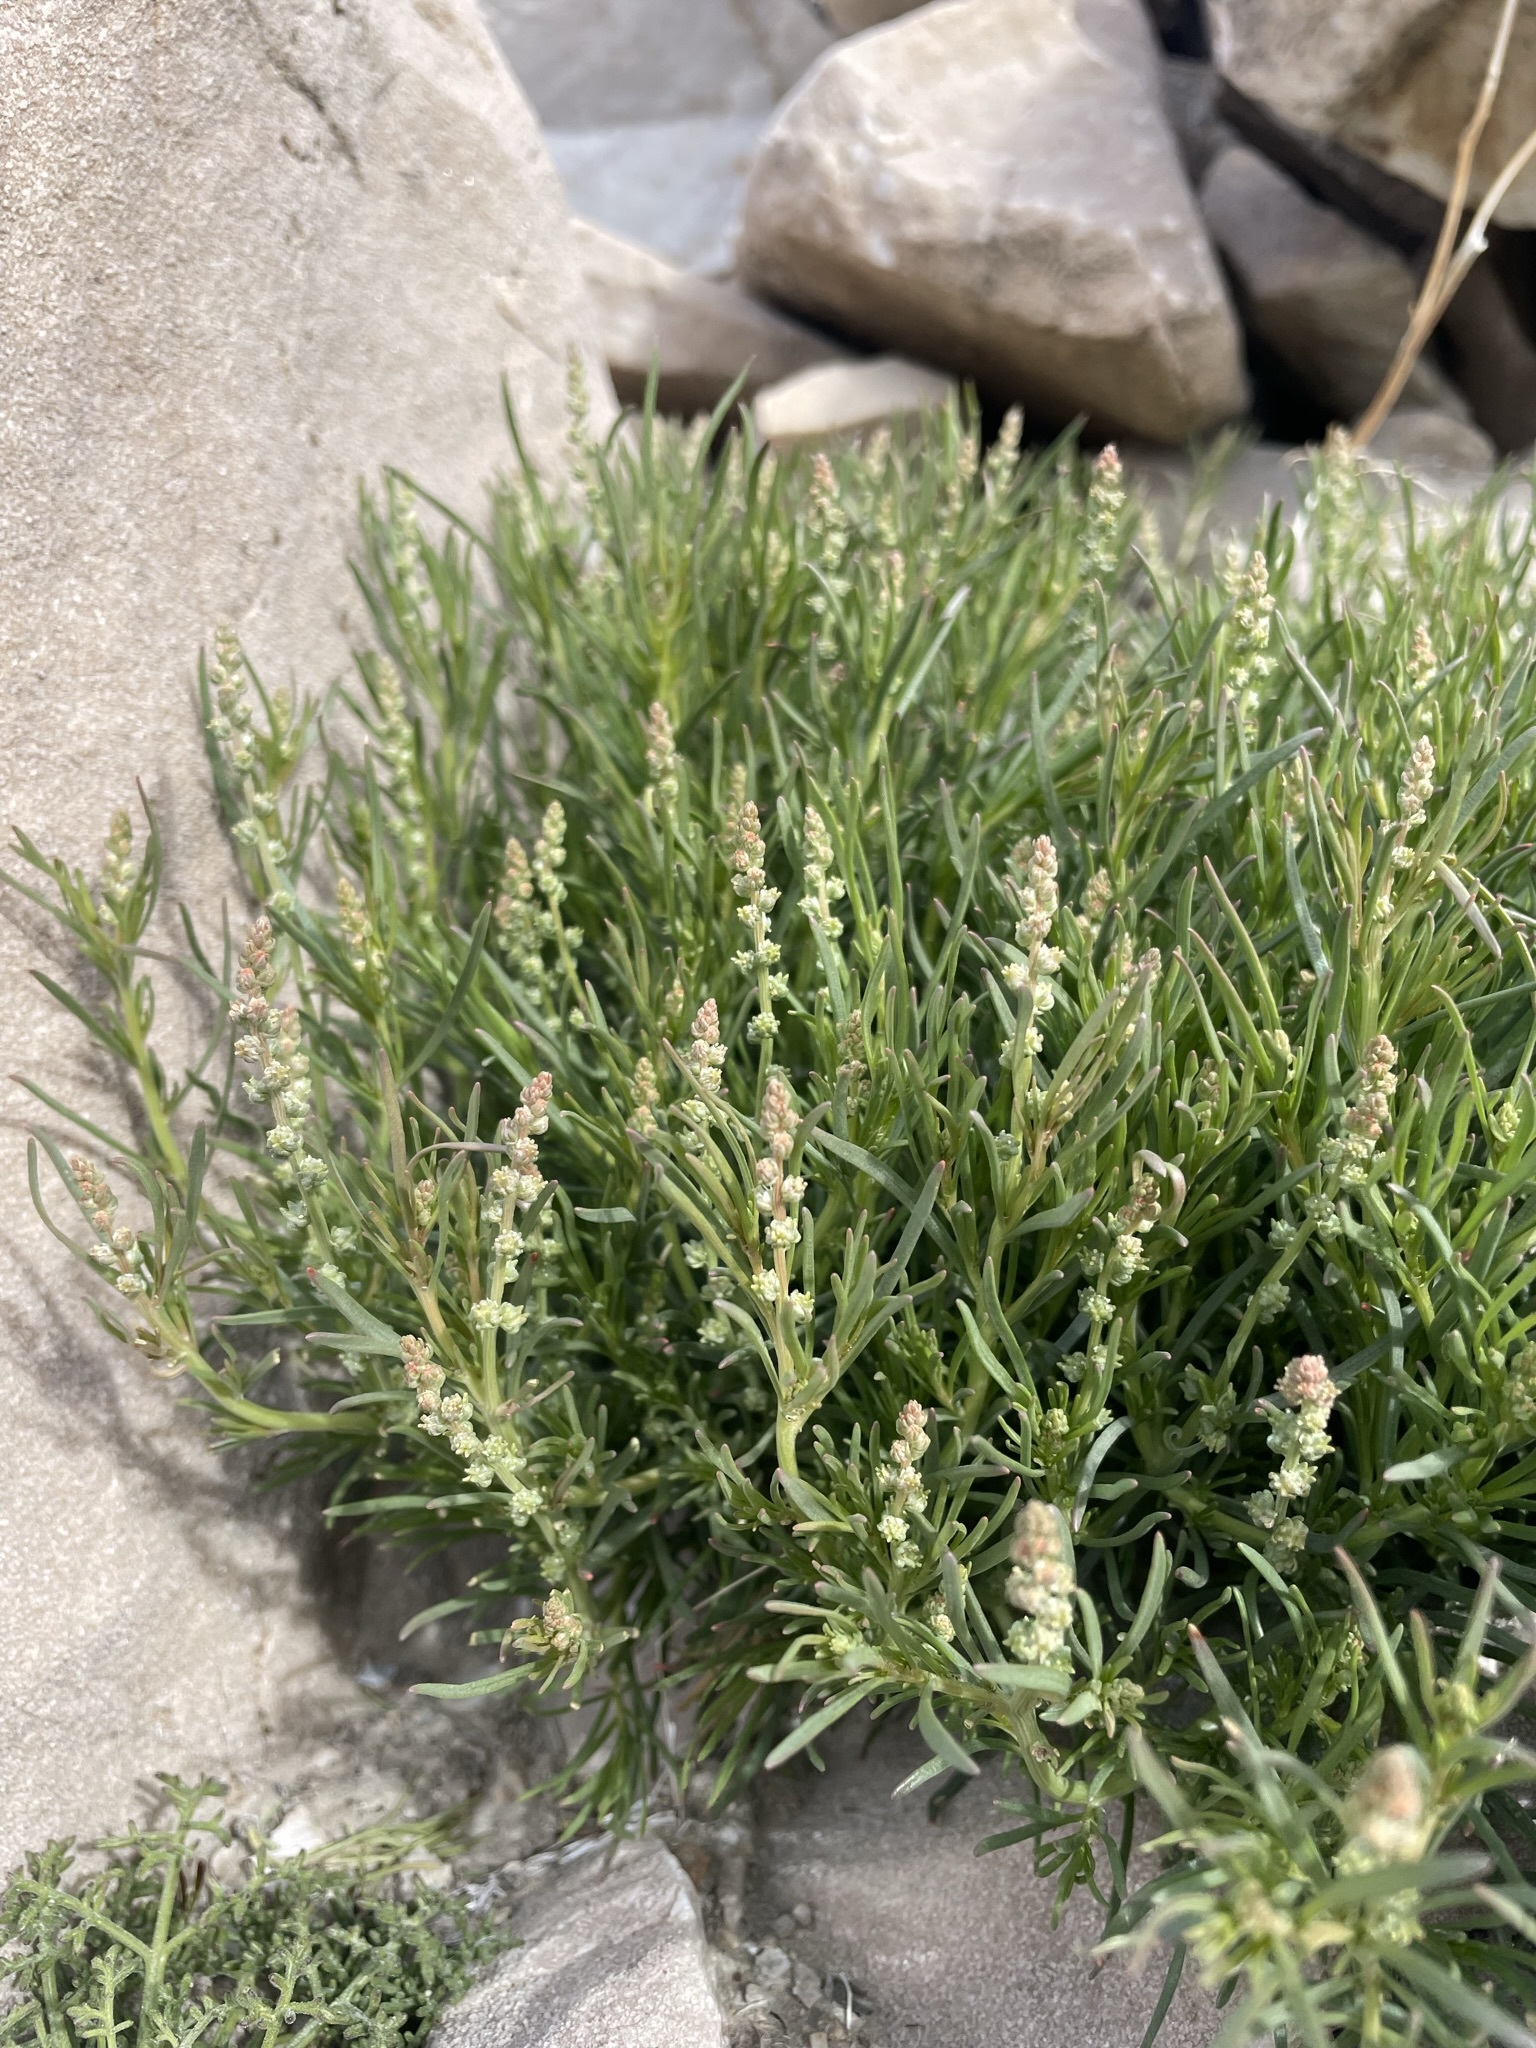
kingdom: Plantae
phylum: Tracheophyta
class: Magnoliopsida
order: Brassicales
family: Resedaceae
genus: Oligomeris
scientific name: Oligomeris linifolia
